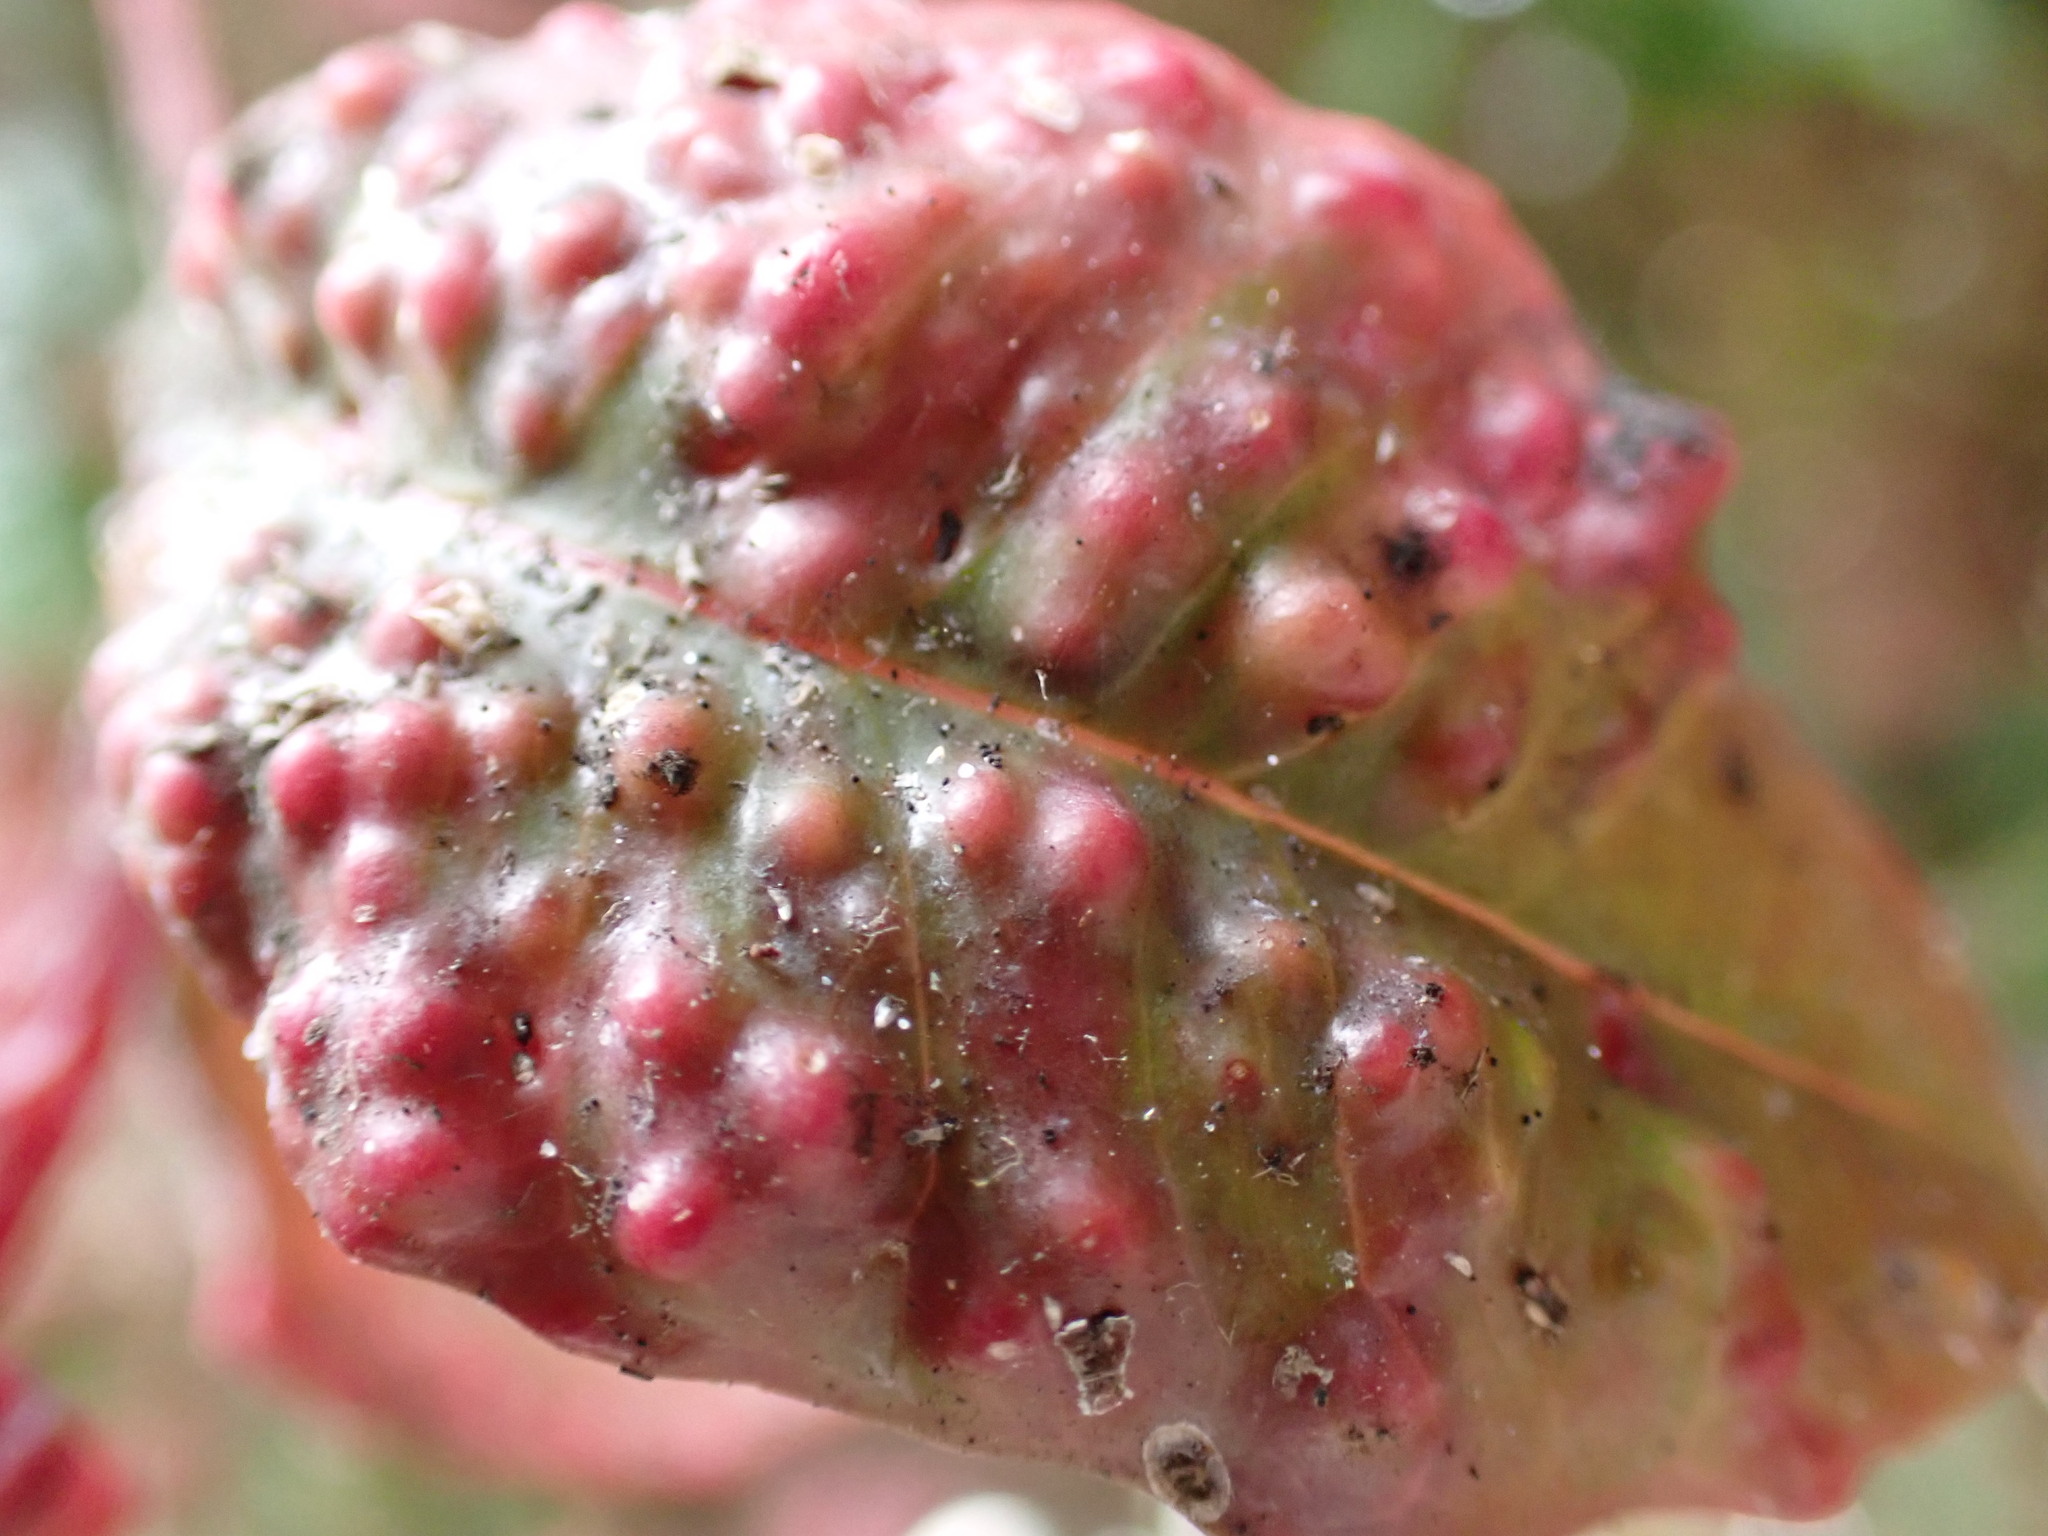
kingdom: Animalia
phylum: Arthropoda
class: Insecta
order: Hemiptera
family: Triozidae
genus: Trioza
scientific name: Trioza adventicia
